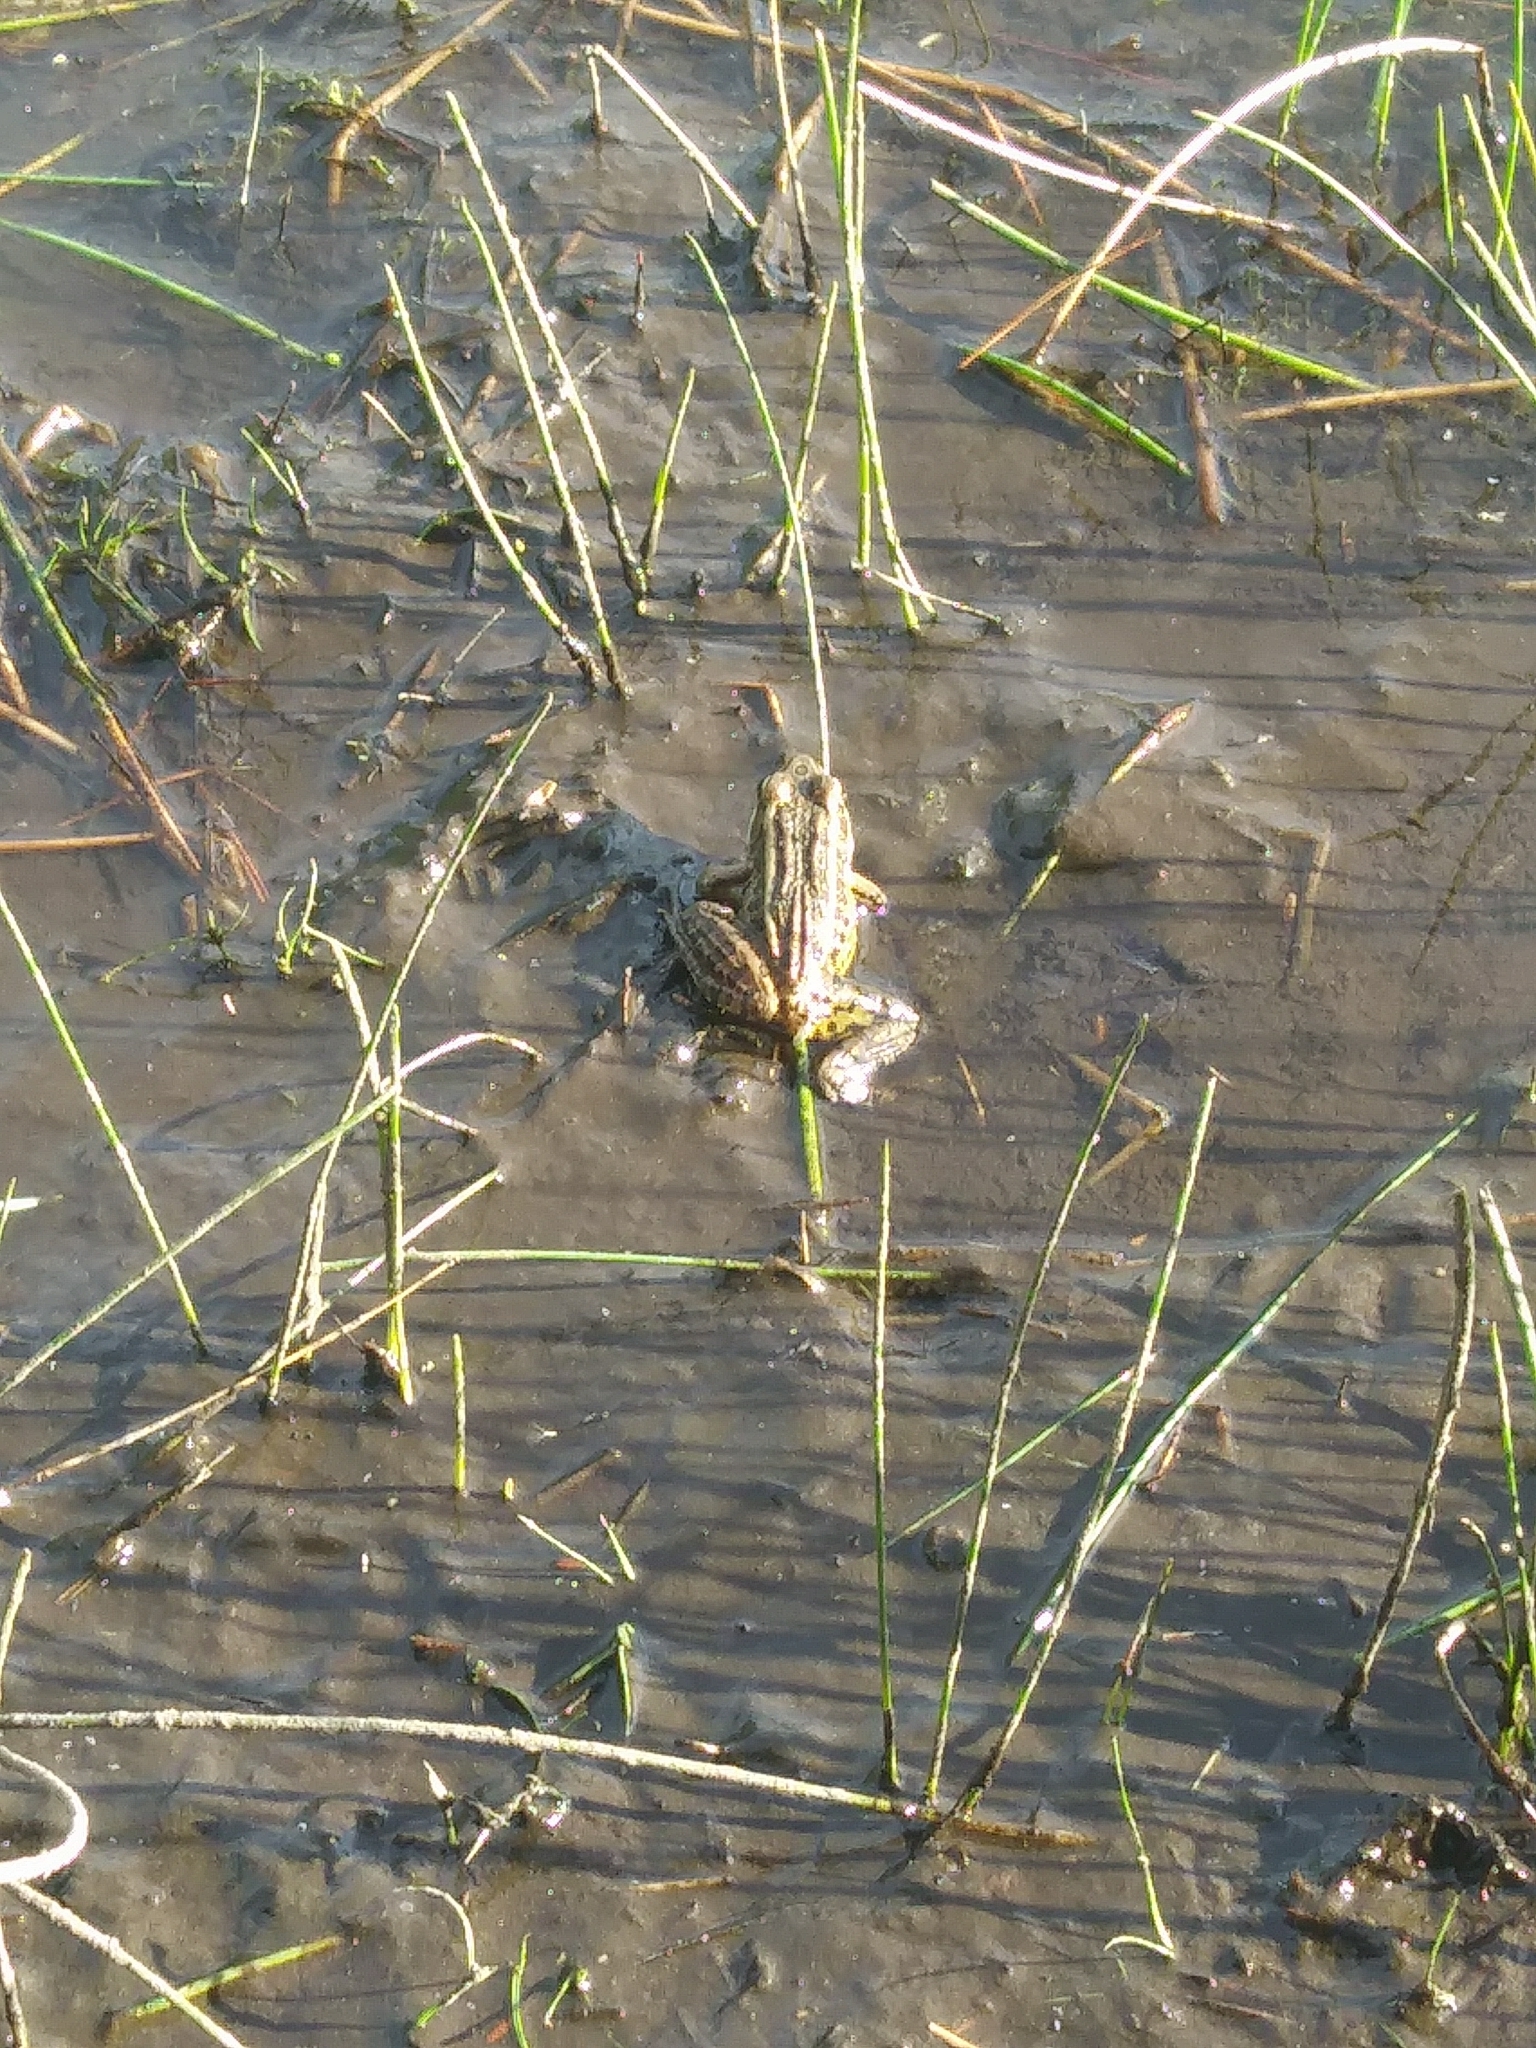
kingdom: Animalia
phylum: Chordata
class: Amphibia
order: Anura
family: Ranidae
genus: Lithobates
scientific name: Lithobates palustris
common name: Pickerel frog
